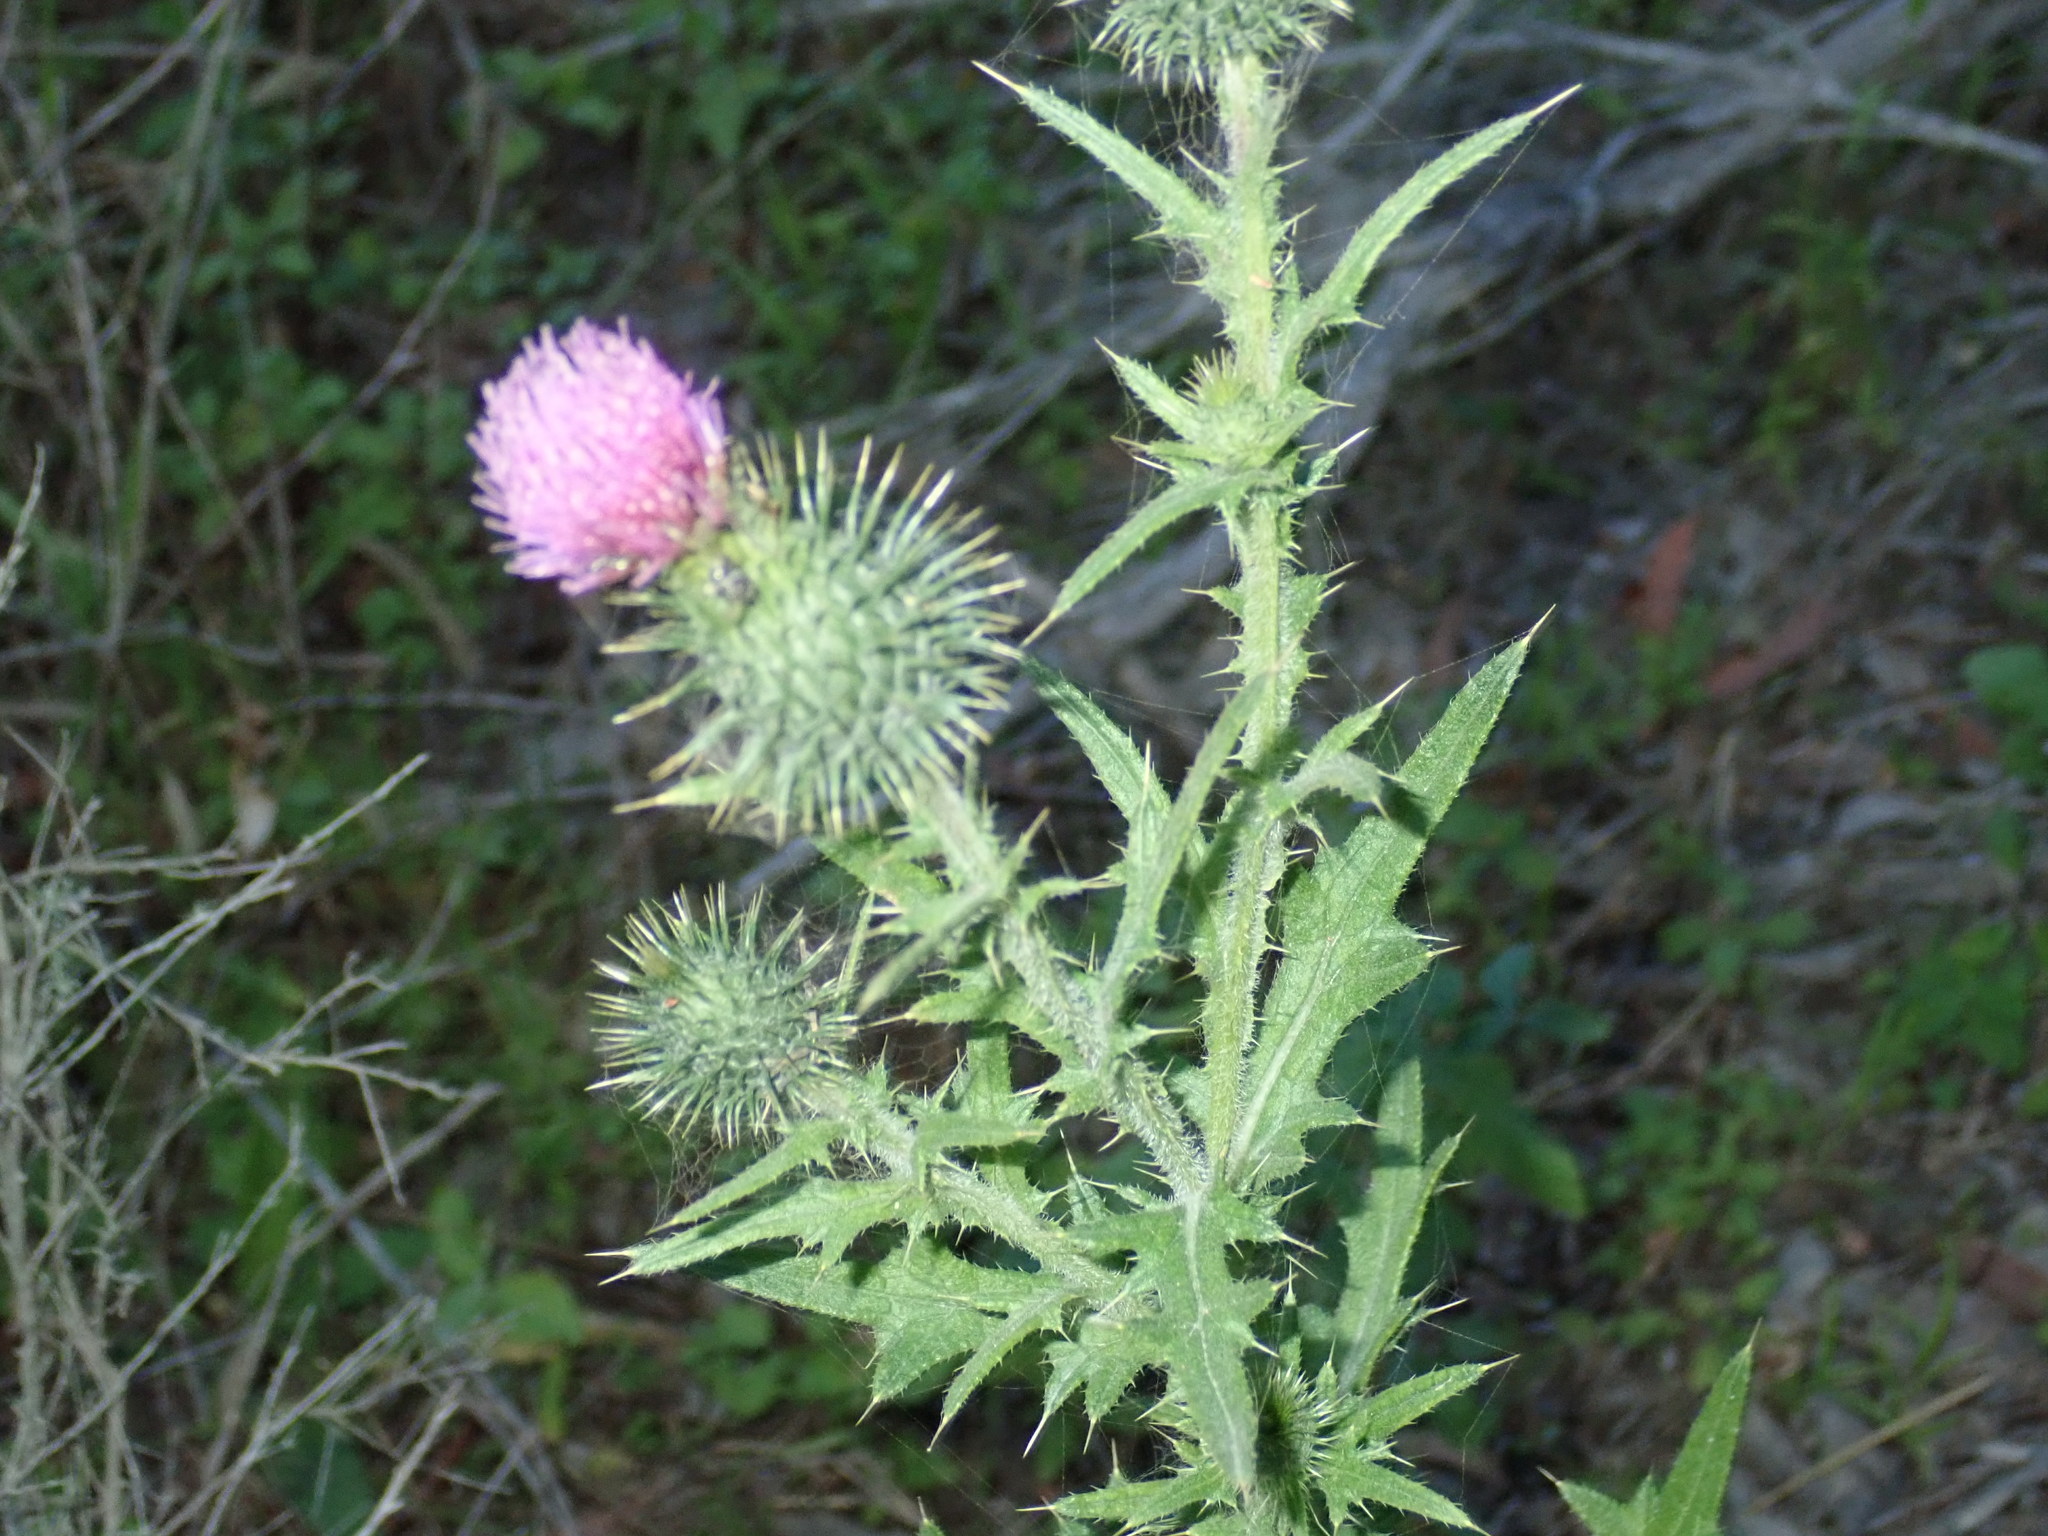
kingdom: Plantae
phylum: Tracheophyta
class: Magnoliopsida
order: Asterales
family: Asteraceae
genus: Cirsium
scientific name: Cirsium vulgare
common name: Bull thistle
